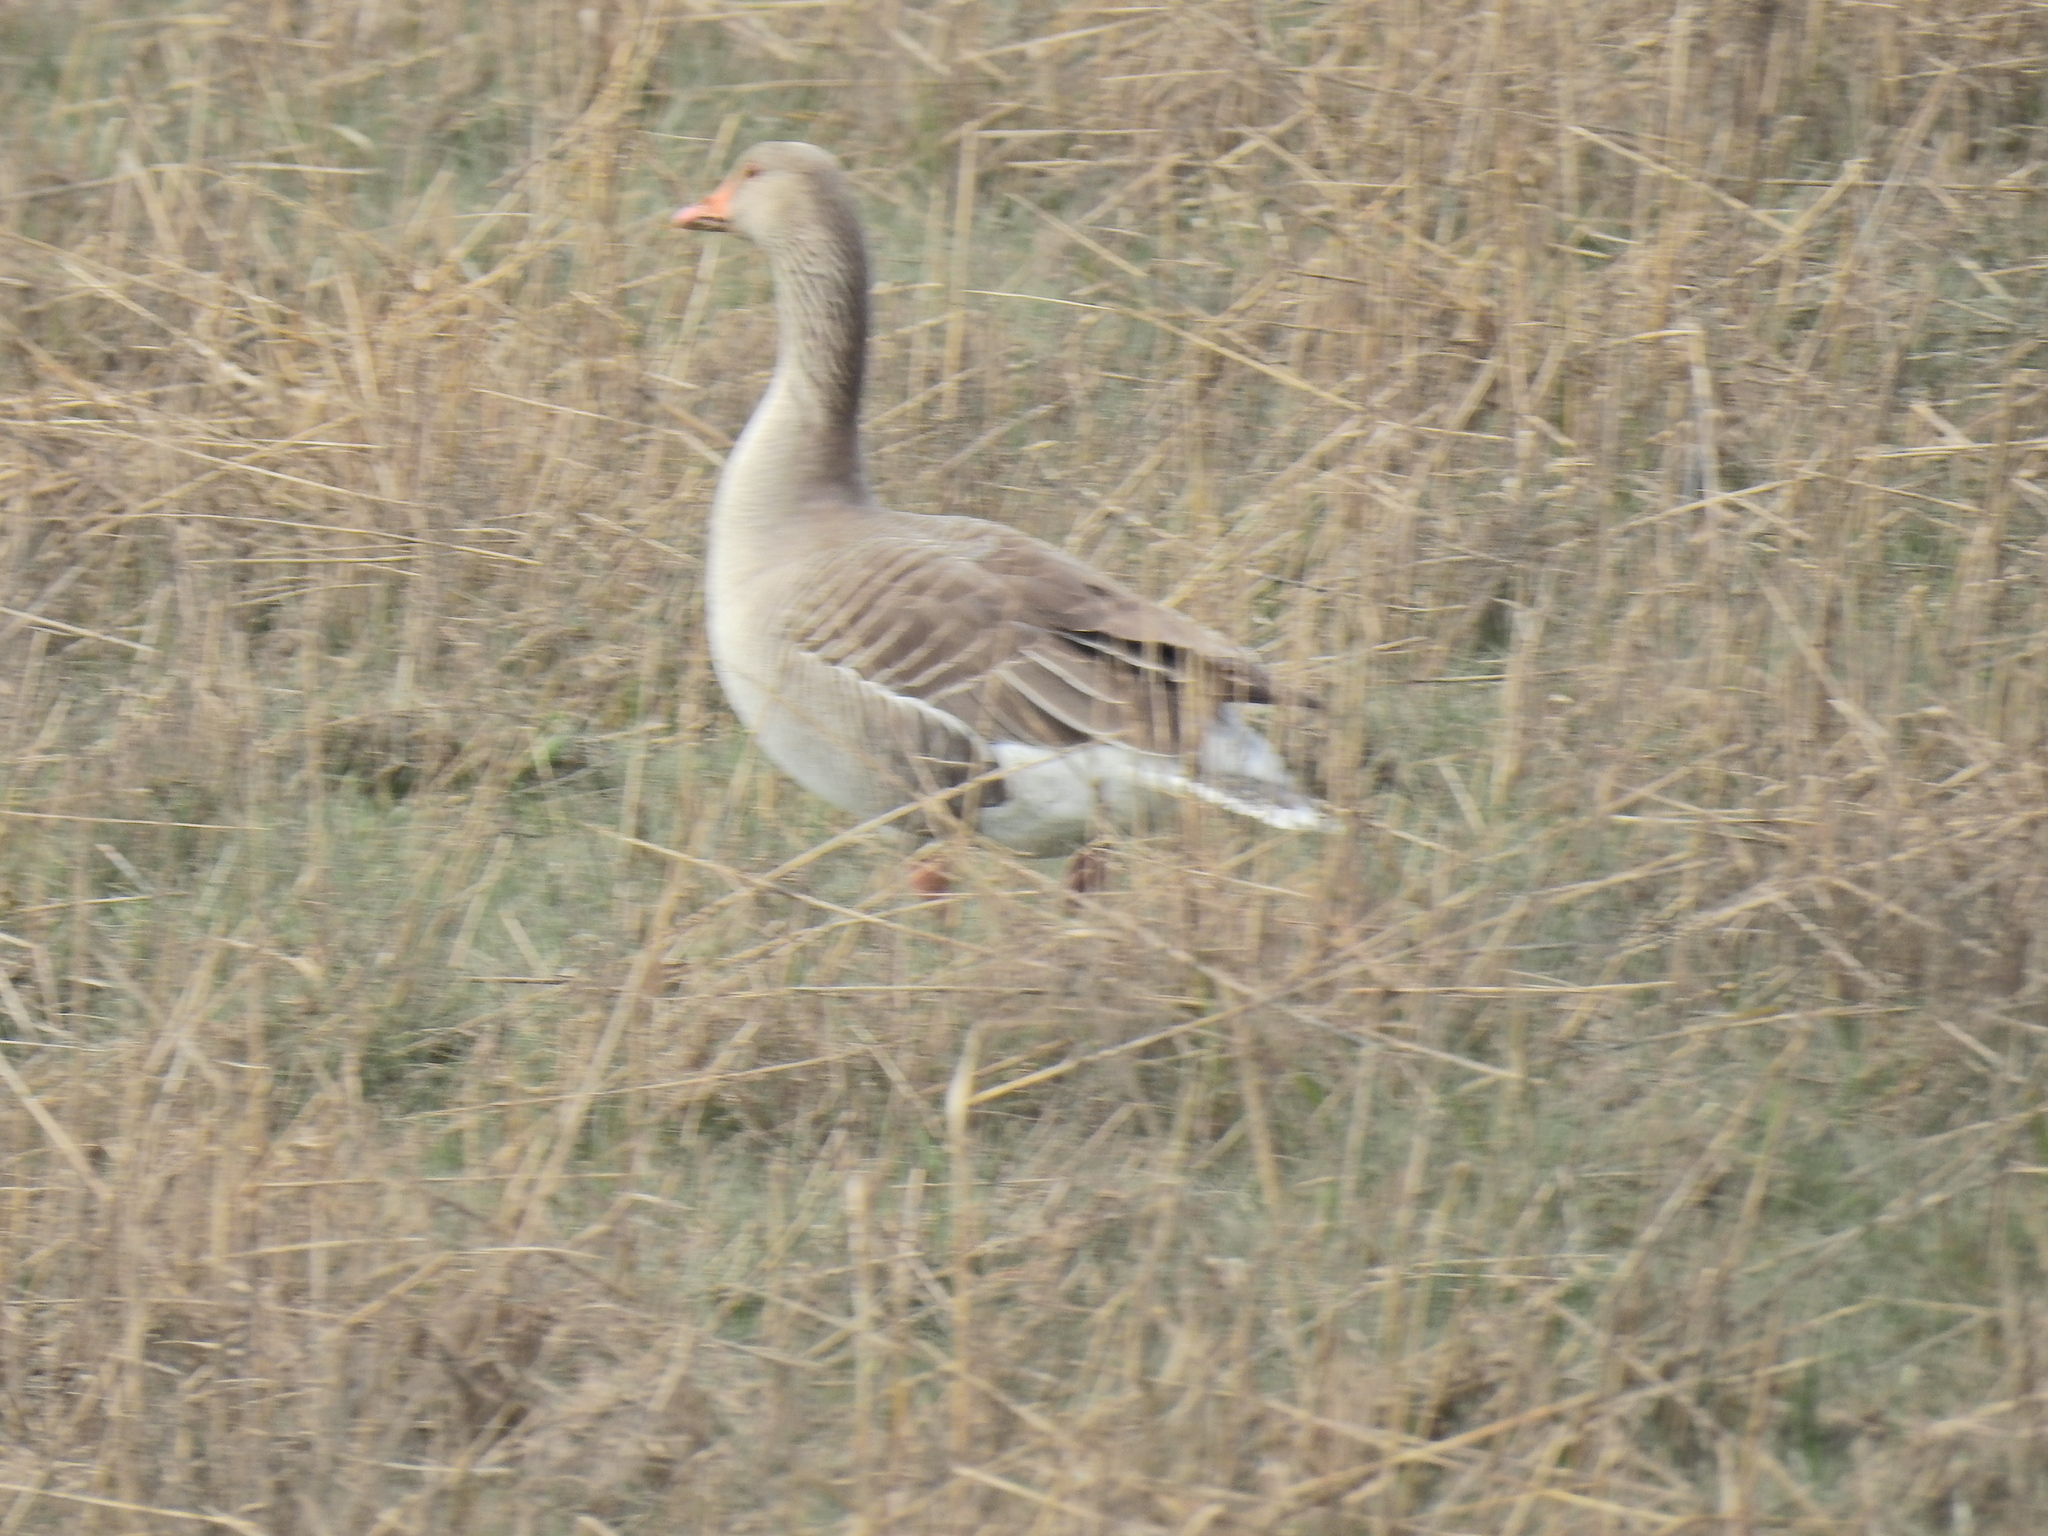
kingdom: Animalia
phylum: Chordata
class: Aves
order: Anseriformes
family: Anatidae
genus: Anser
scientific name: Anser anser
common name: Greylag goose
